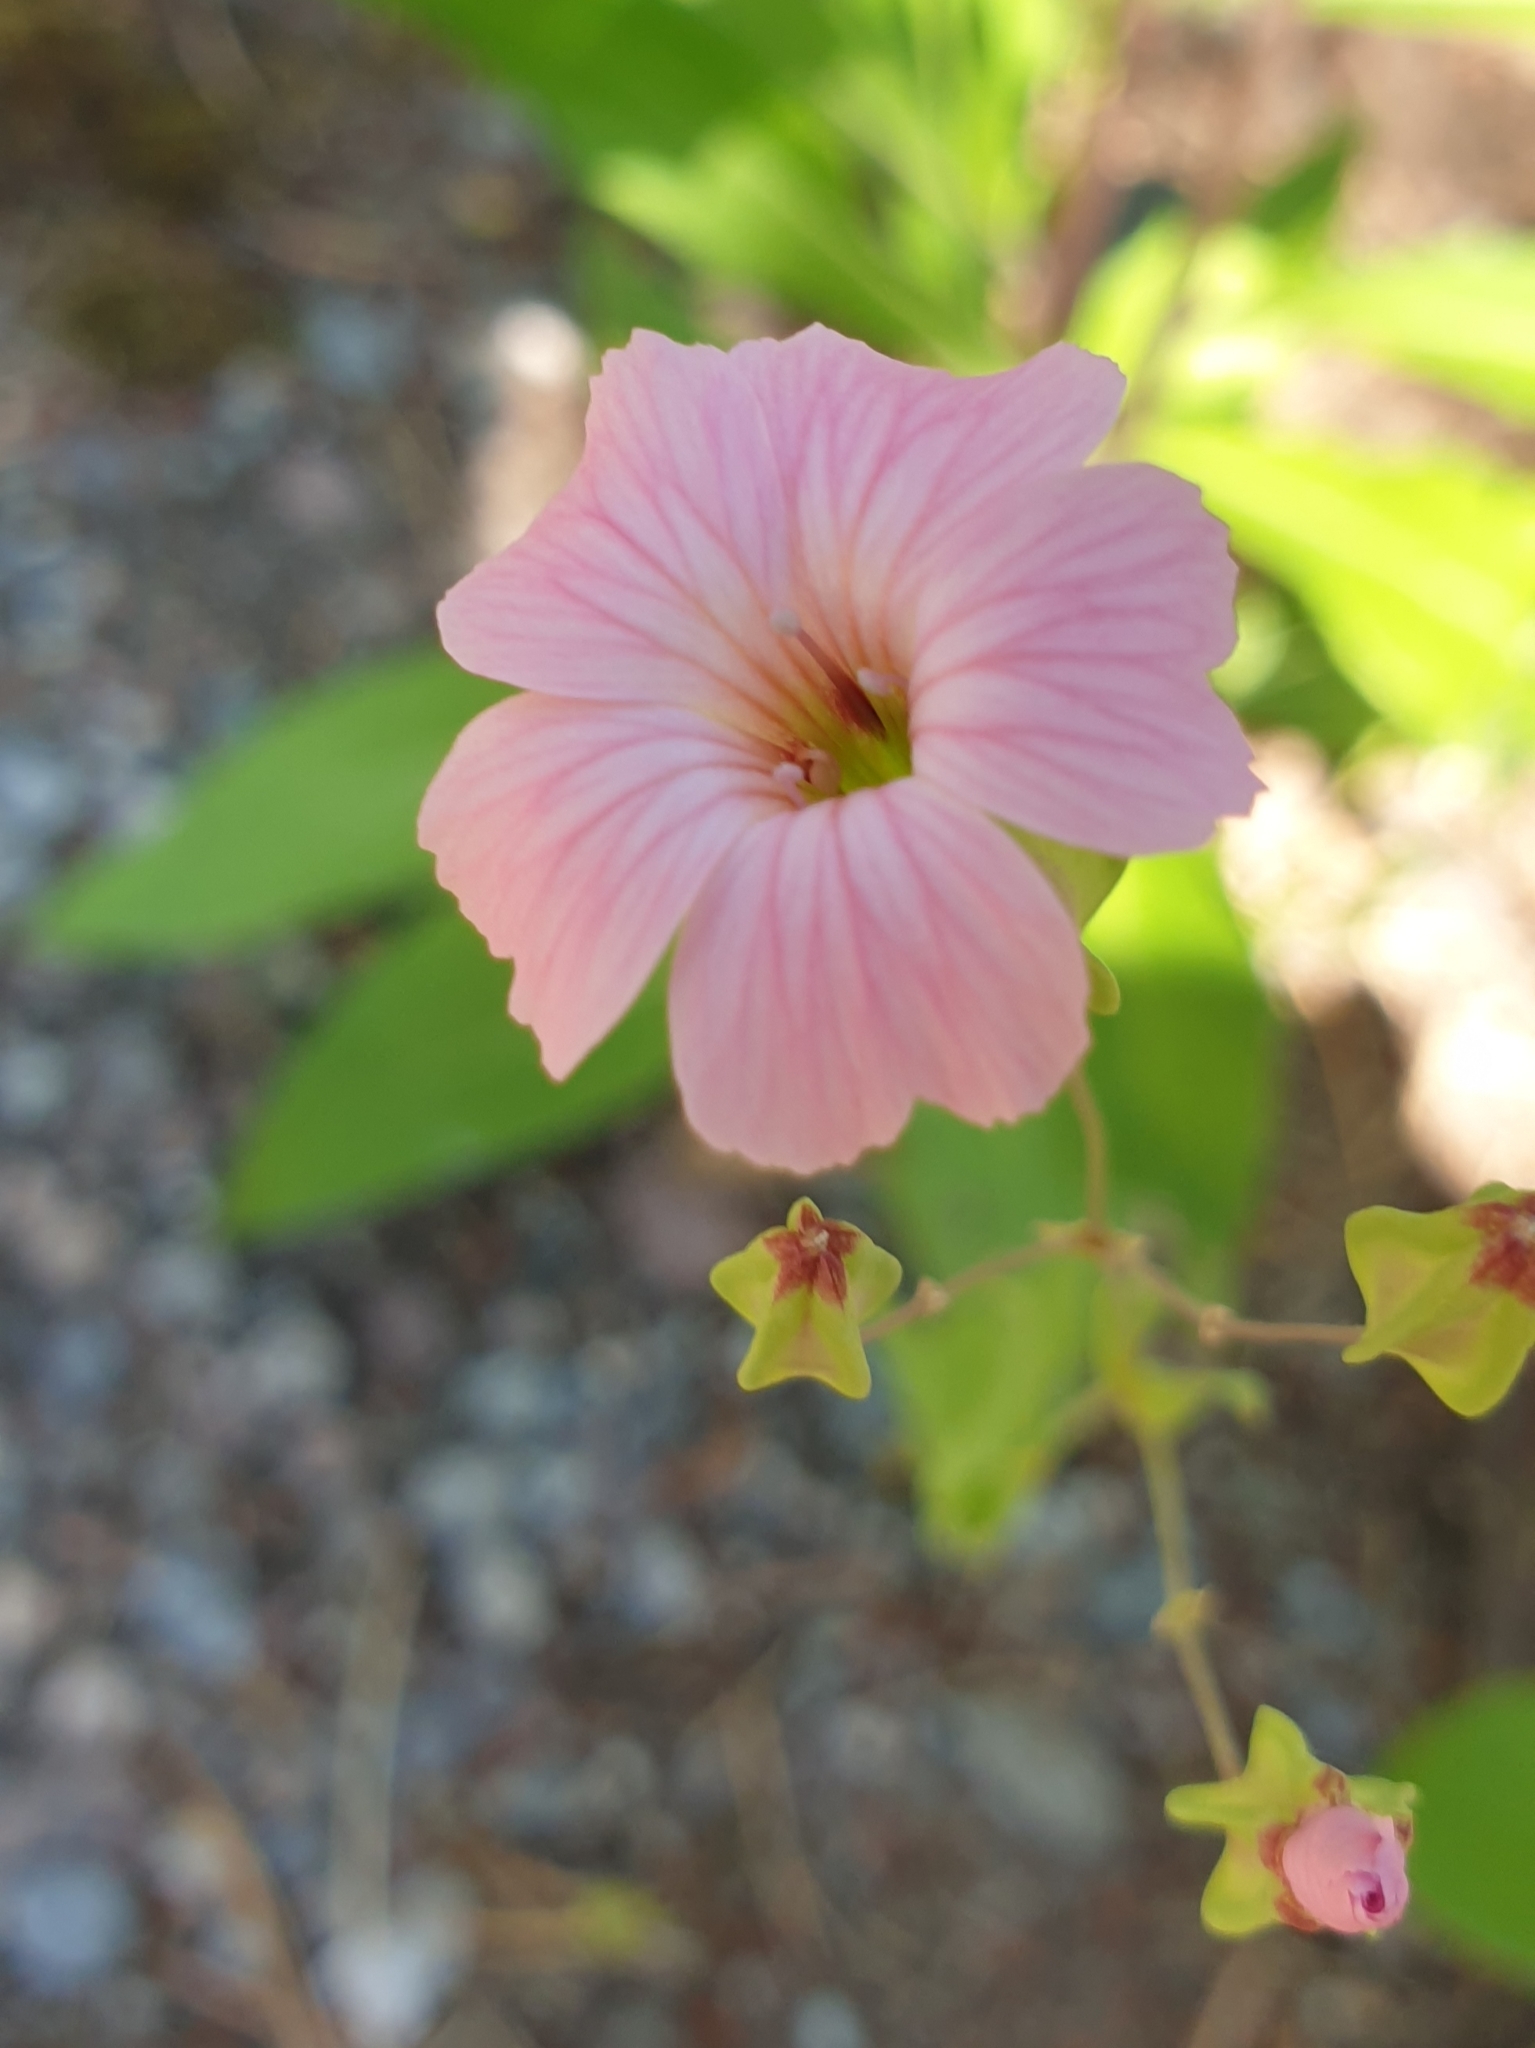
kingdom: Plantae
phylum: Tracheophyta
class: Magnoliopsida
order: Caryophyllales
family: Caryophyllaceae
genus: Gypsophila
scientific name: Gypsophila vaccaria
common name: Cow soapwort
